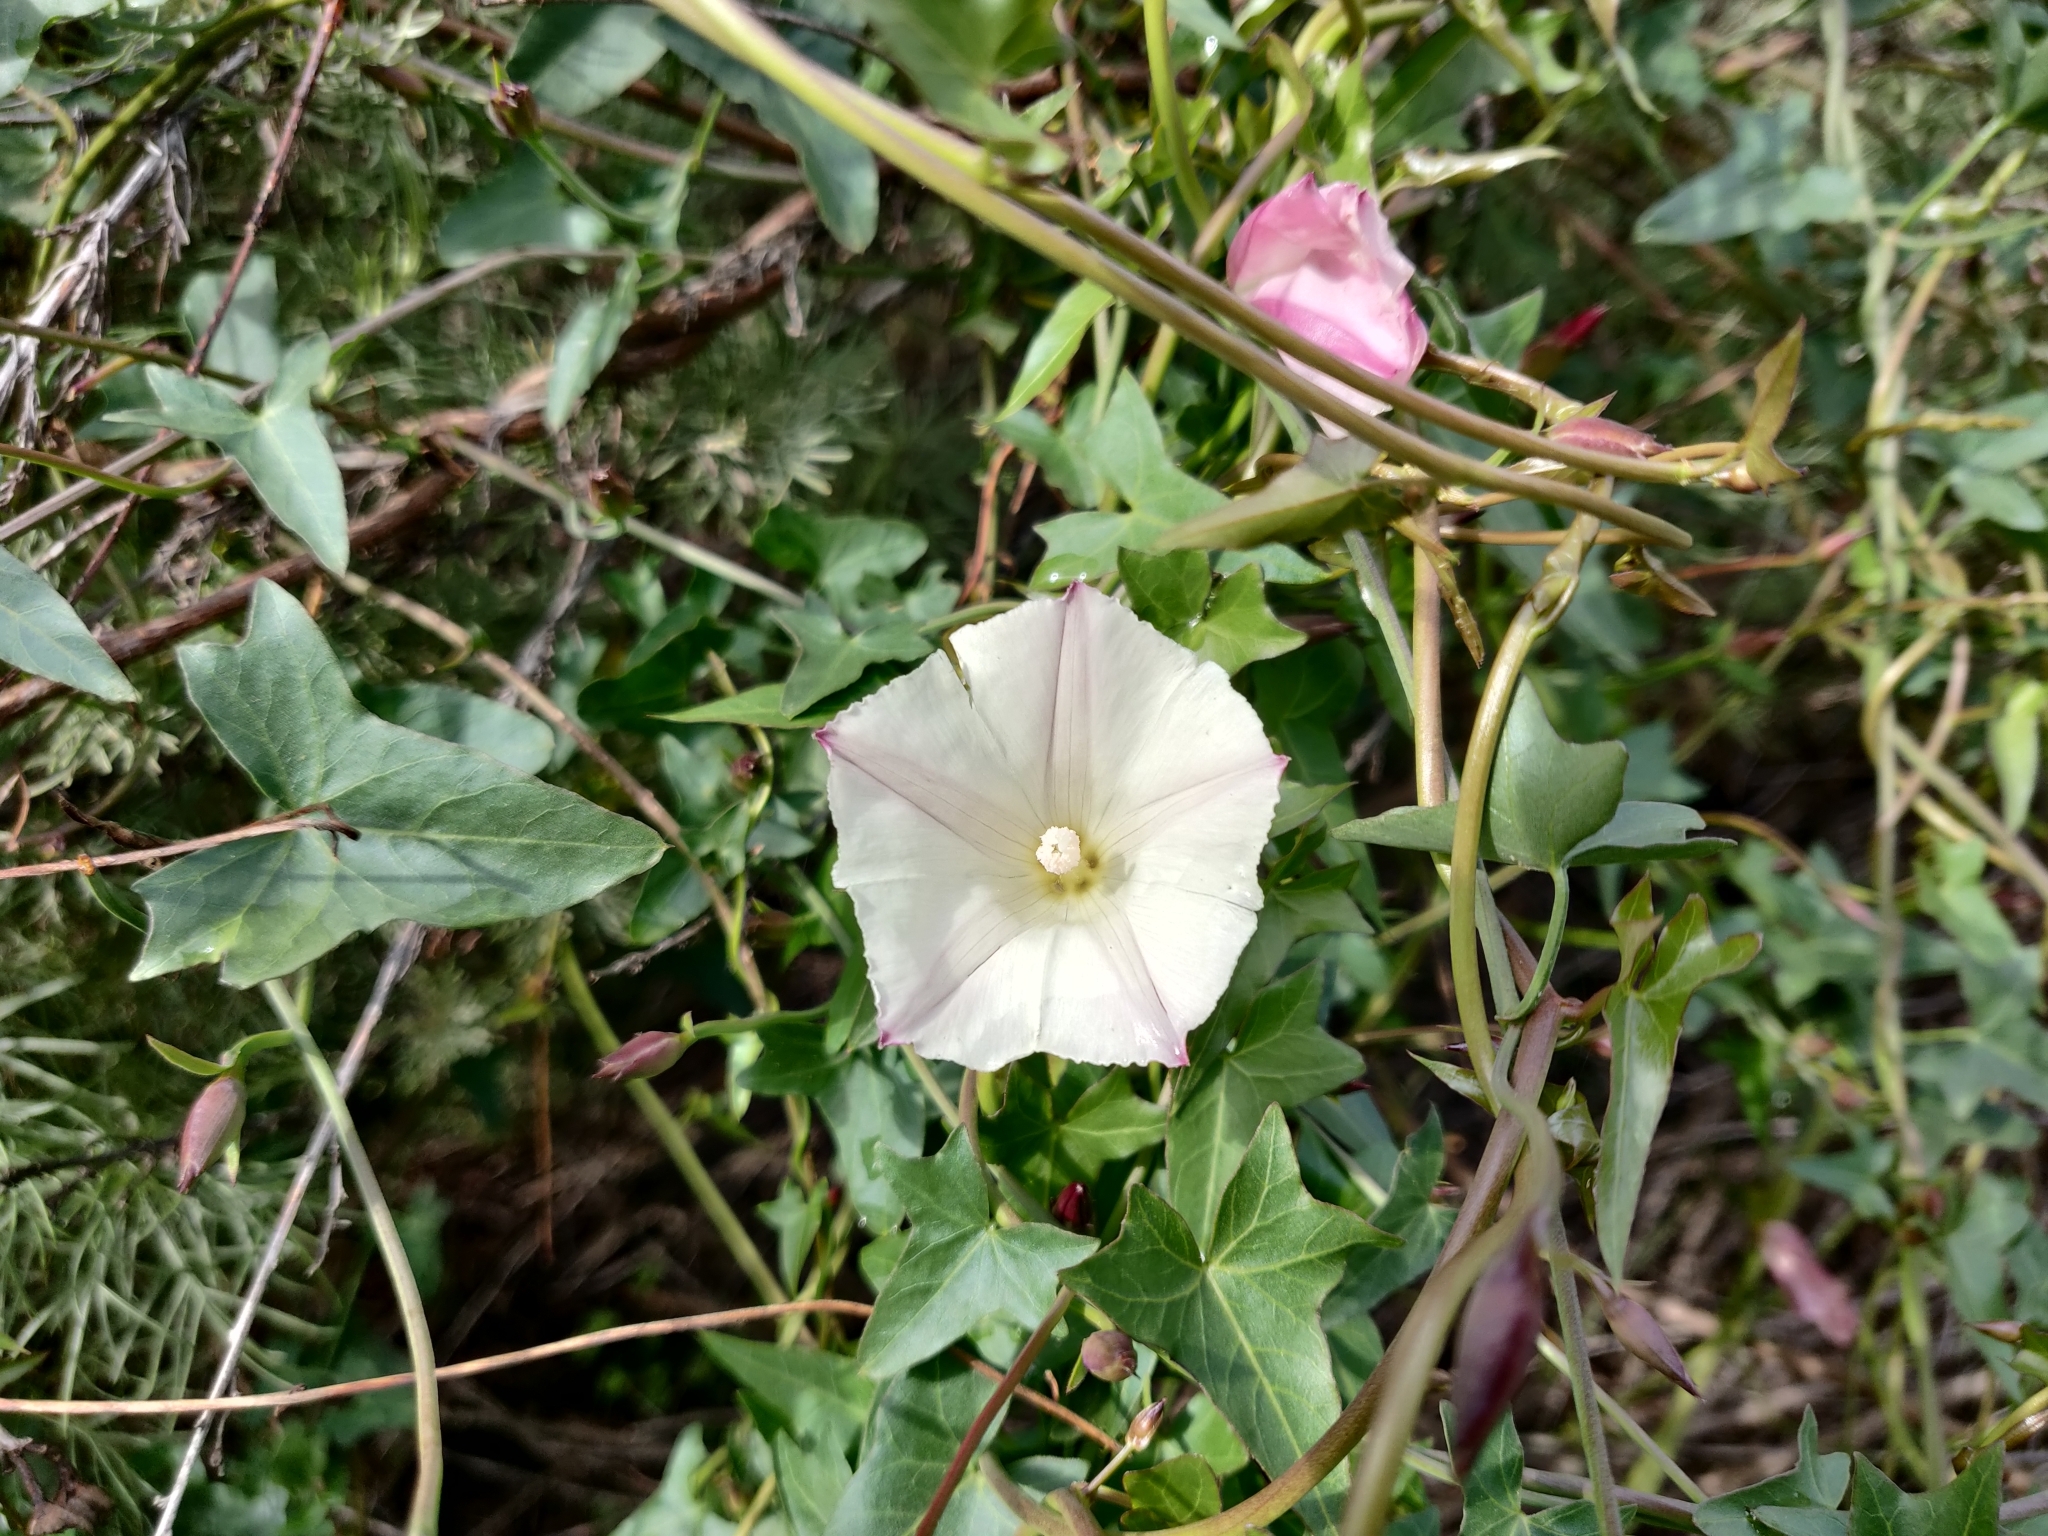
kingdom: Plantae
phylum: Tracheophyta
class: Magnoliopsida
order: Solanales
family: Convolvulaceae
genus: Calystegia
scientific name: Calystegia purpurata
